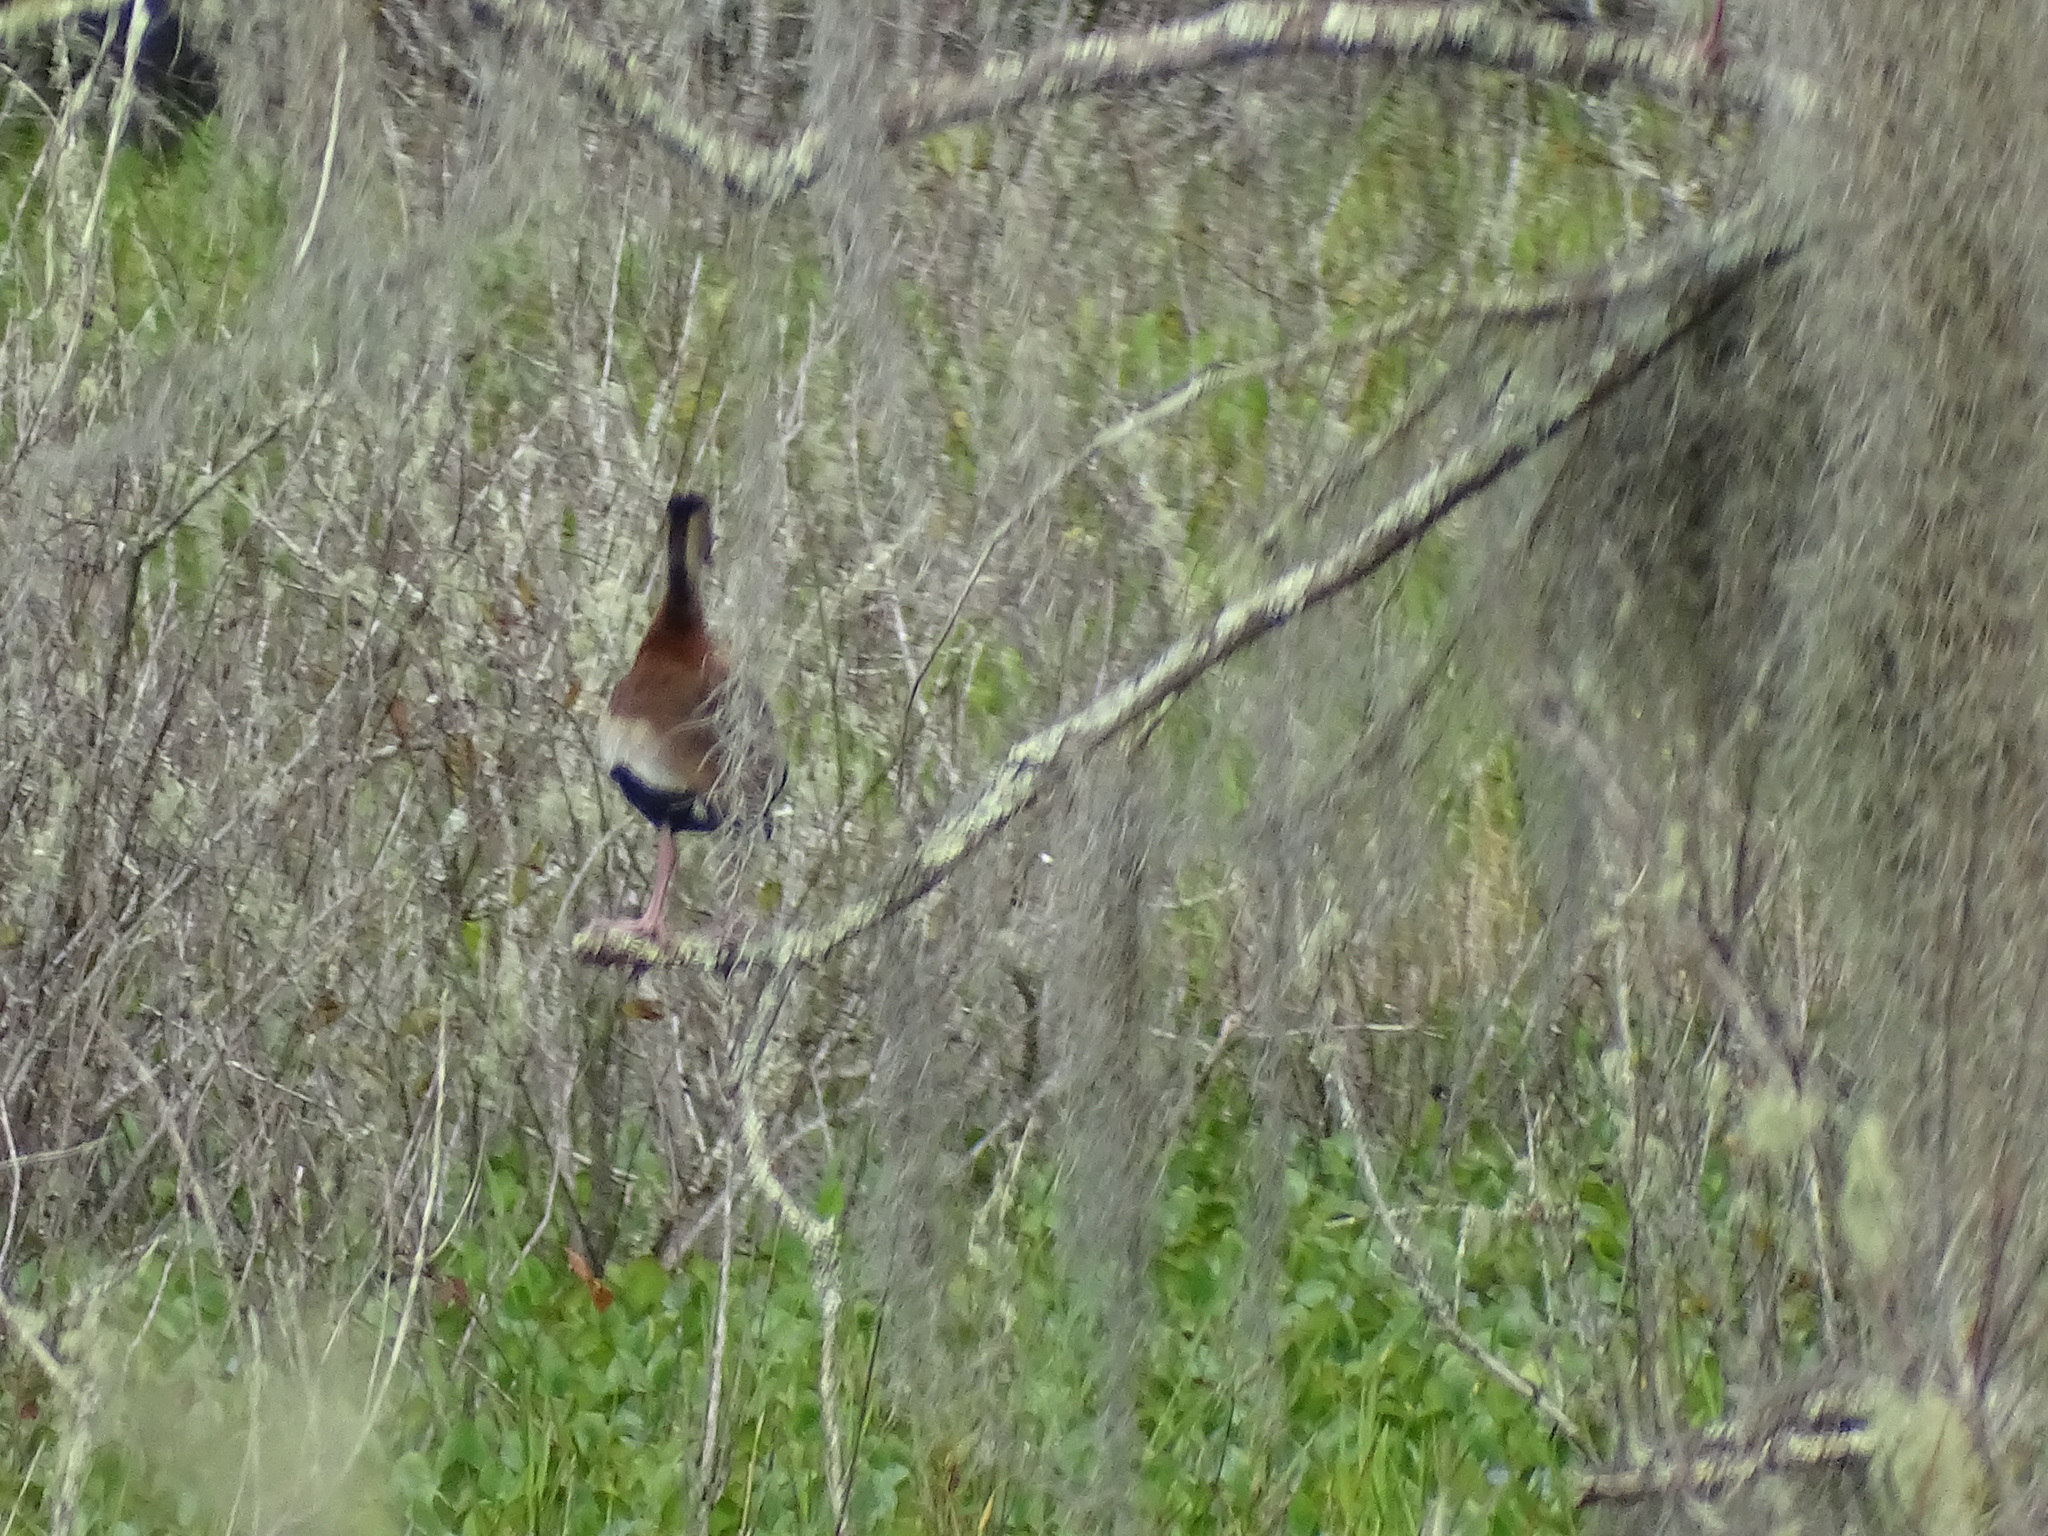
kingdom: Animalia
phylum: Chordata
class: Aves
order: Anseriformes
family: Anatidae
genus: Dendrocygna
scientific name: Dendrocygna autumnalis
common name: Black-bellied whistling duck
